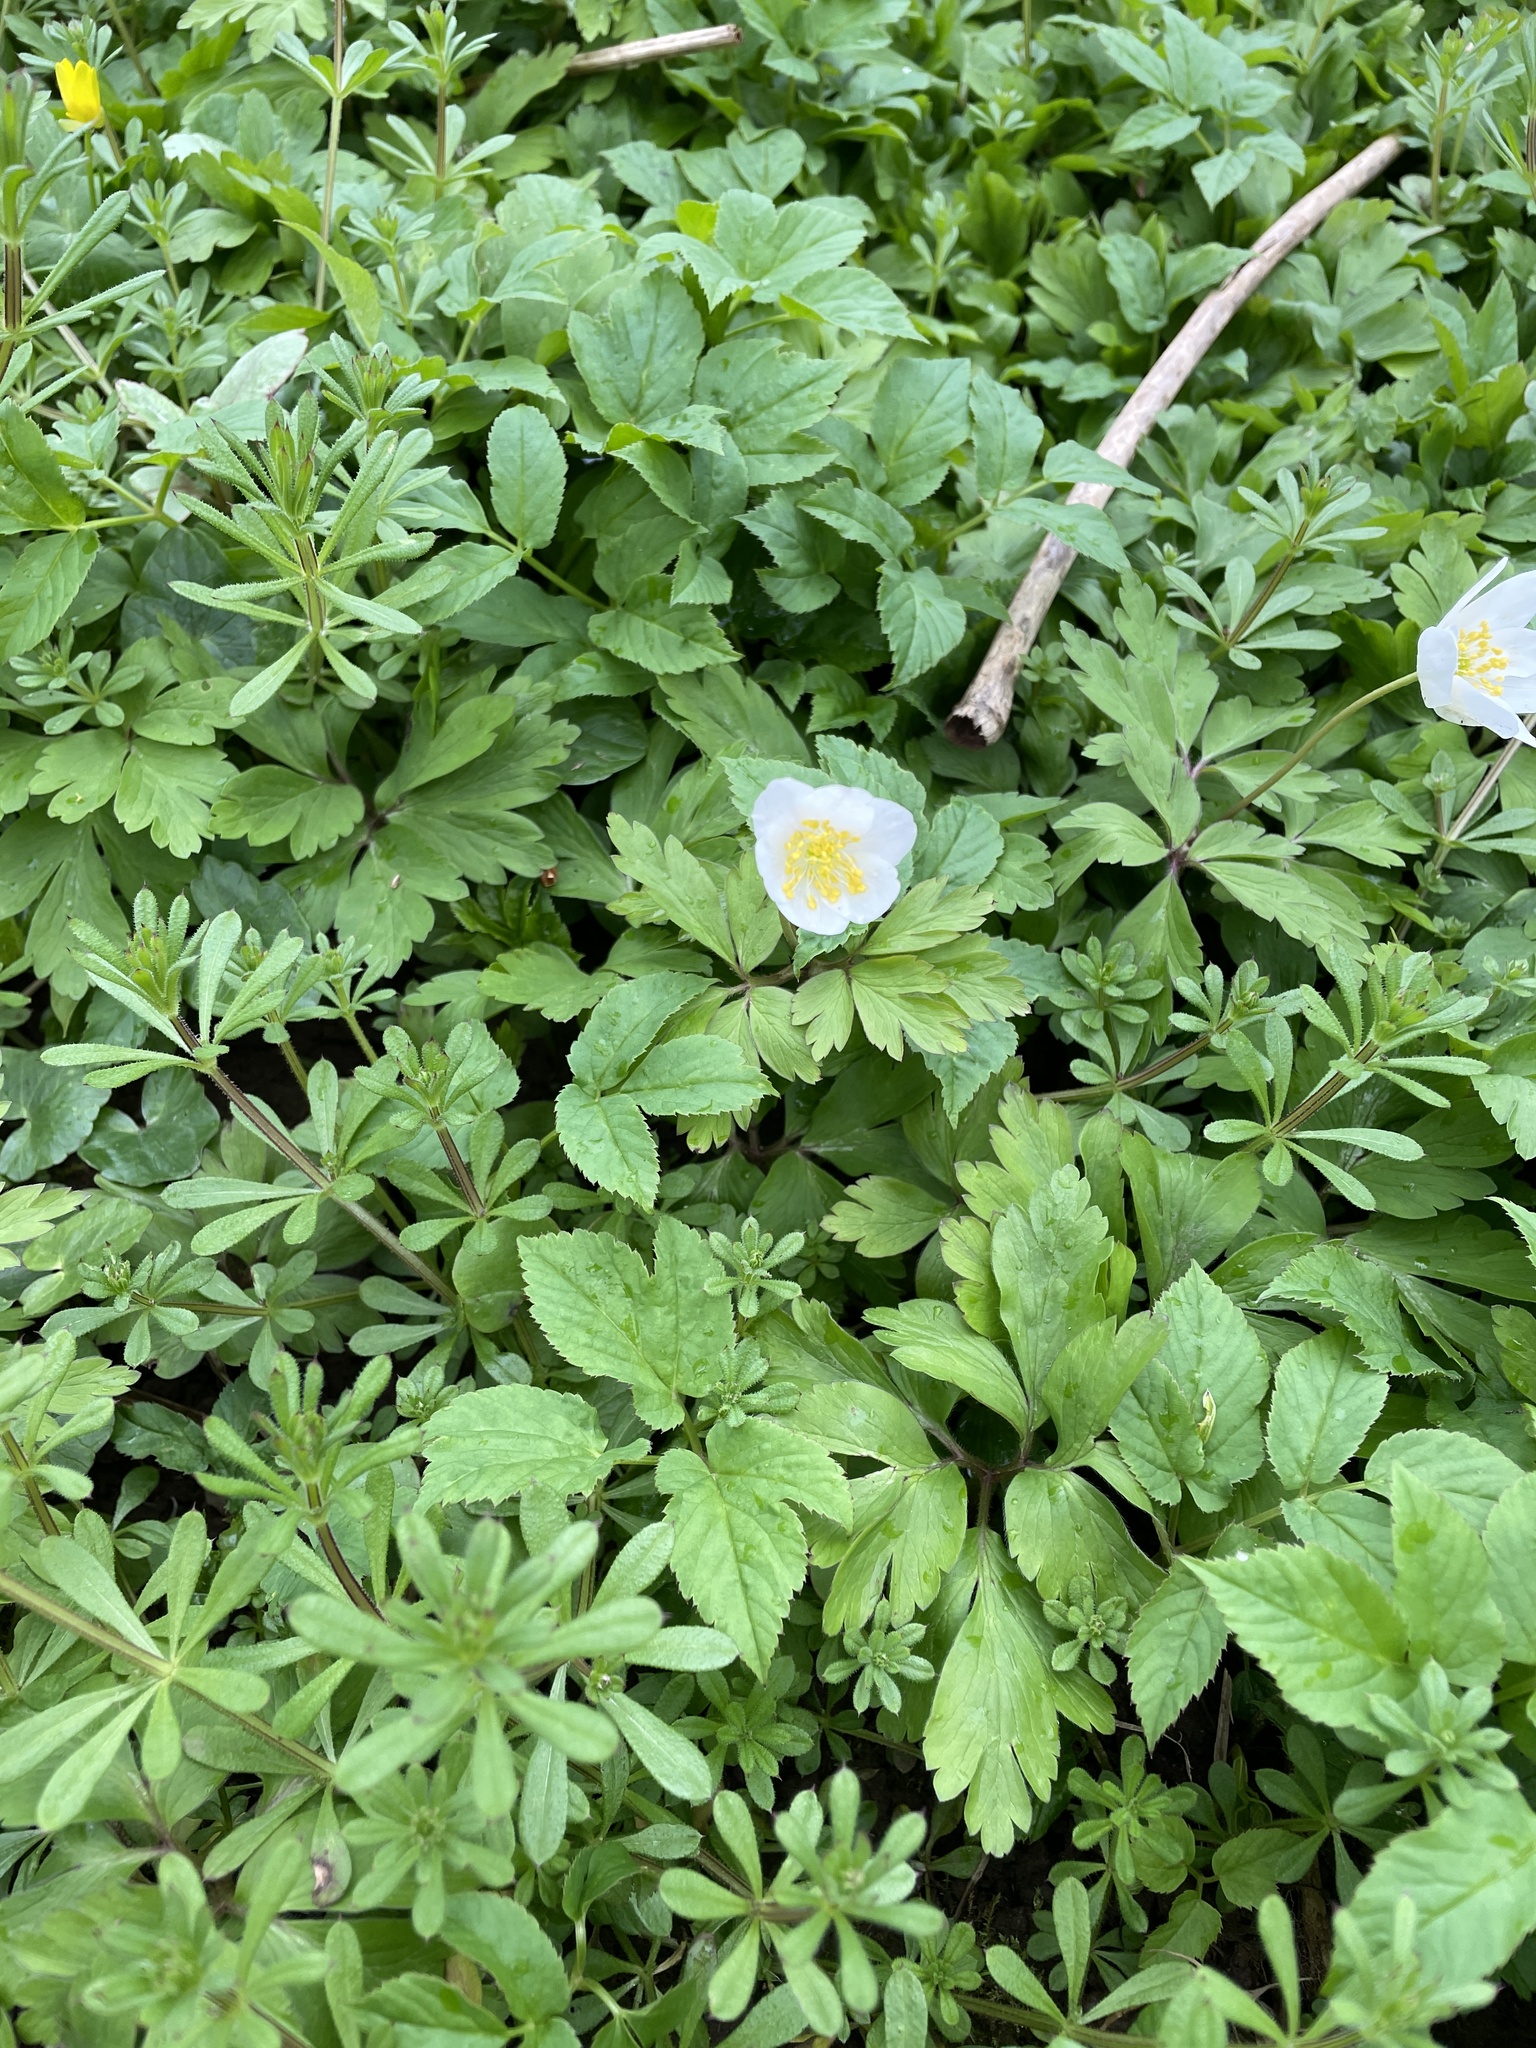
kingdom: Plantae
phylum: Tracheophyta
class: Magnoliopsida
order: Ranunculales
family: Ranunculaceae
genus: Anemone
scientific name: Anemone nemorosa
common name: Wood anemone
